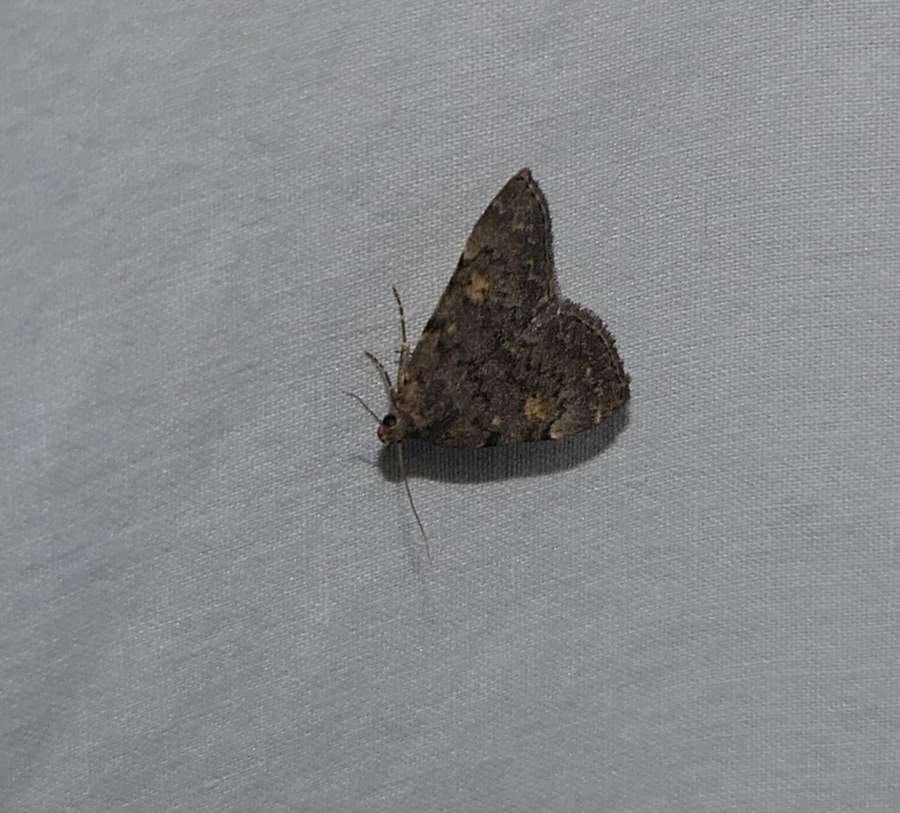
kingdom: Animalia
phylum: Arthropoda
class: Insecta
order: Lepidoptera
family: Erebidae
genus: Idia
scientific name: Idia aemula
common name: Common idia moth
